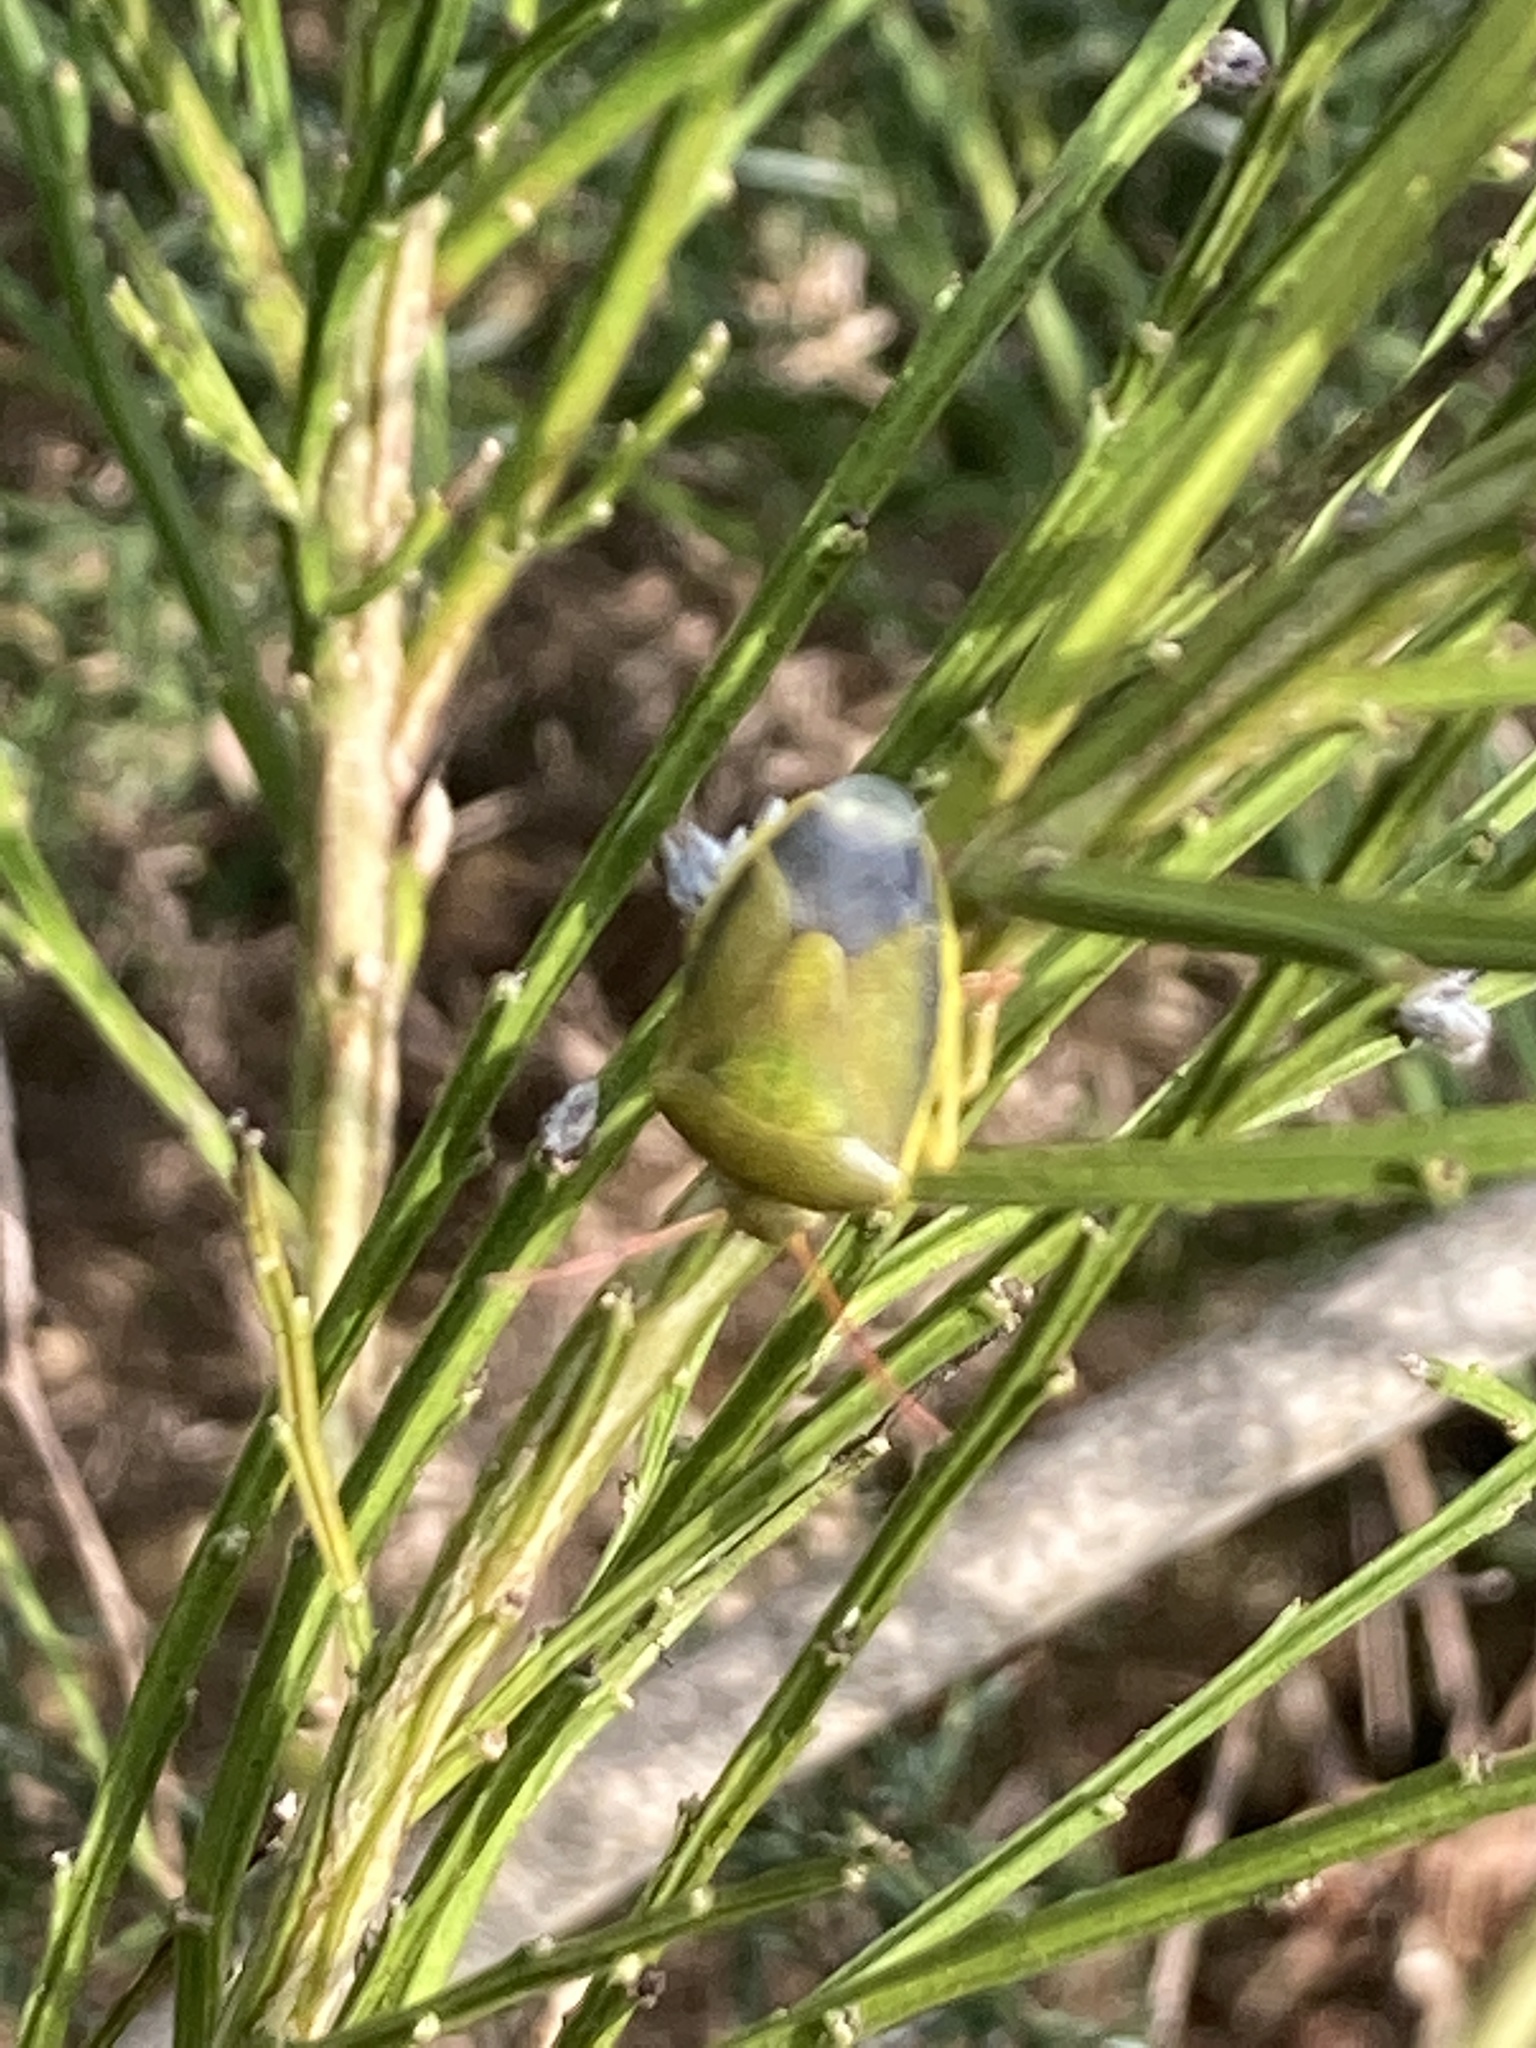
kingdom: Animalia
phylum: Arthropoda
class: Insecta
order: Hemiptera
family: Pentatomidae
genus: Piezodorus
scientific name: Piezodorus lituratus
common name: Stink bug
